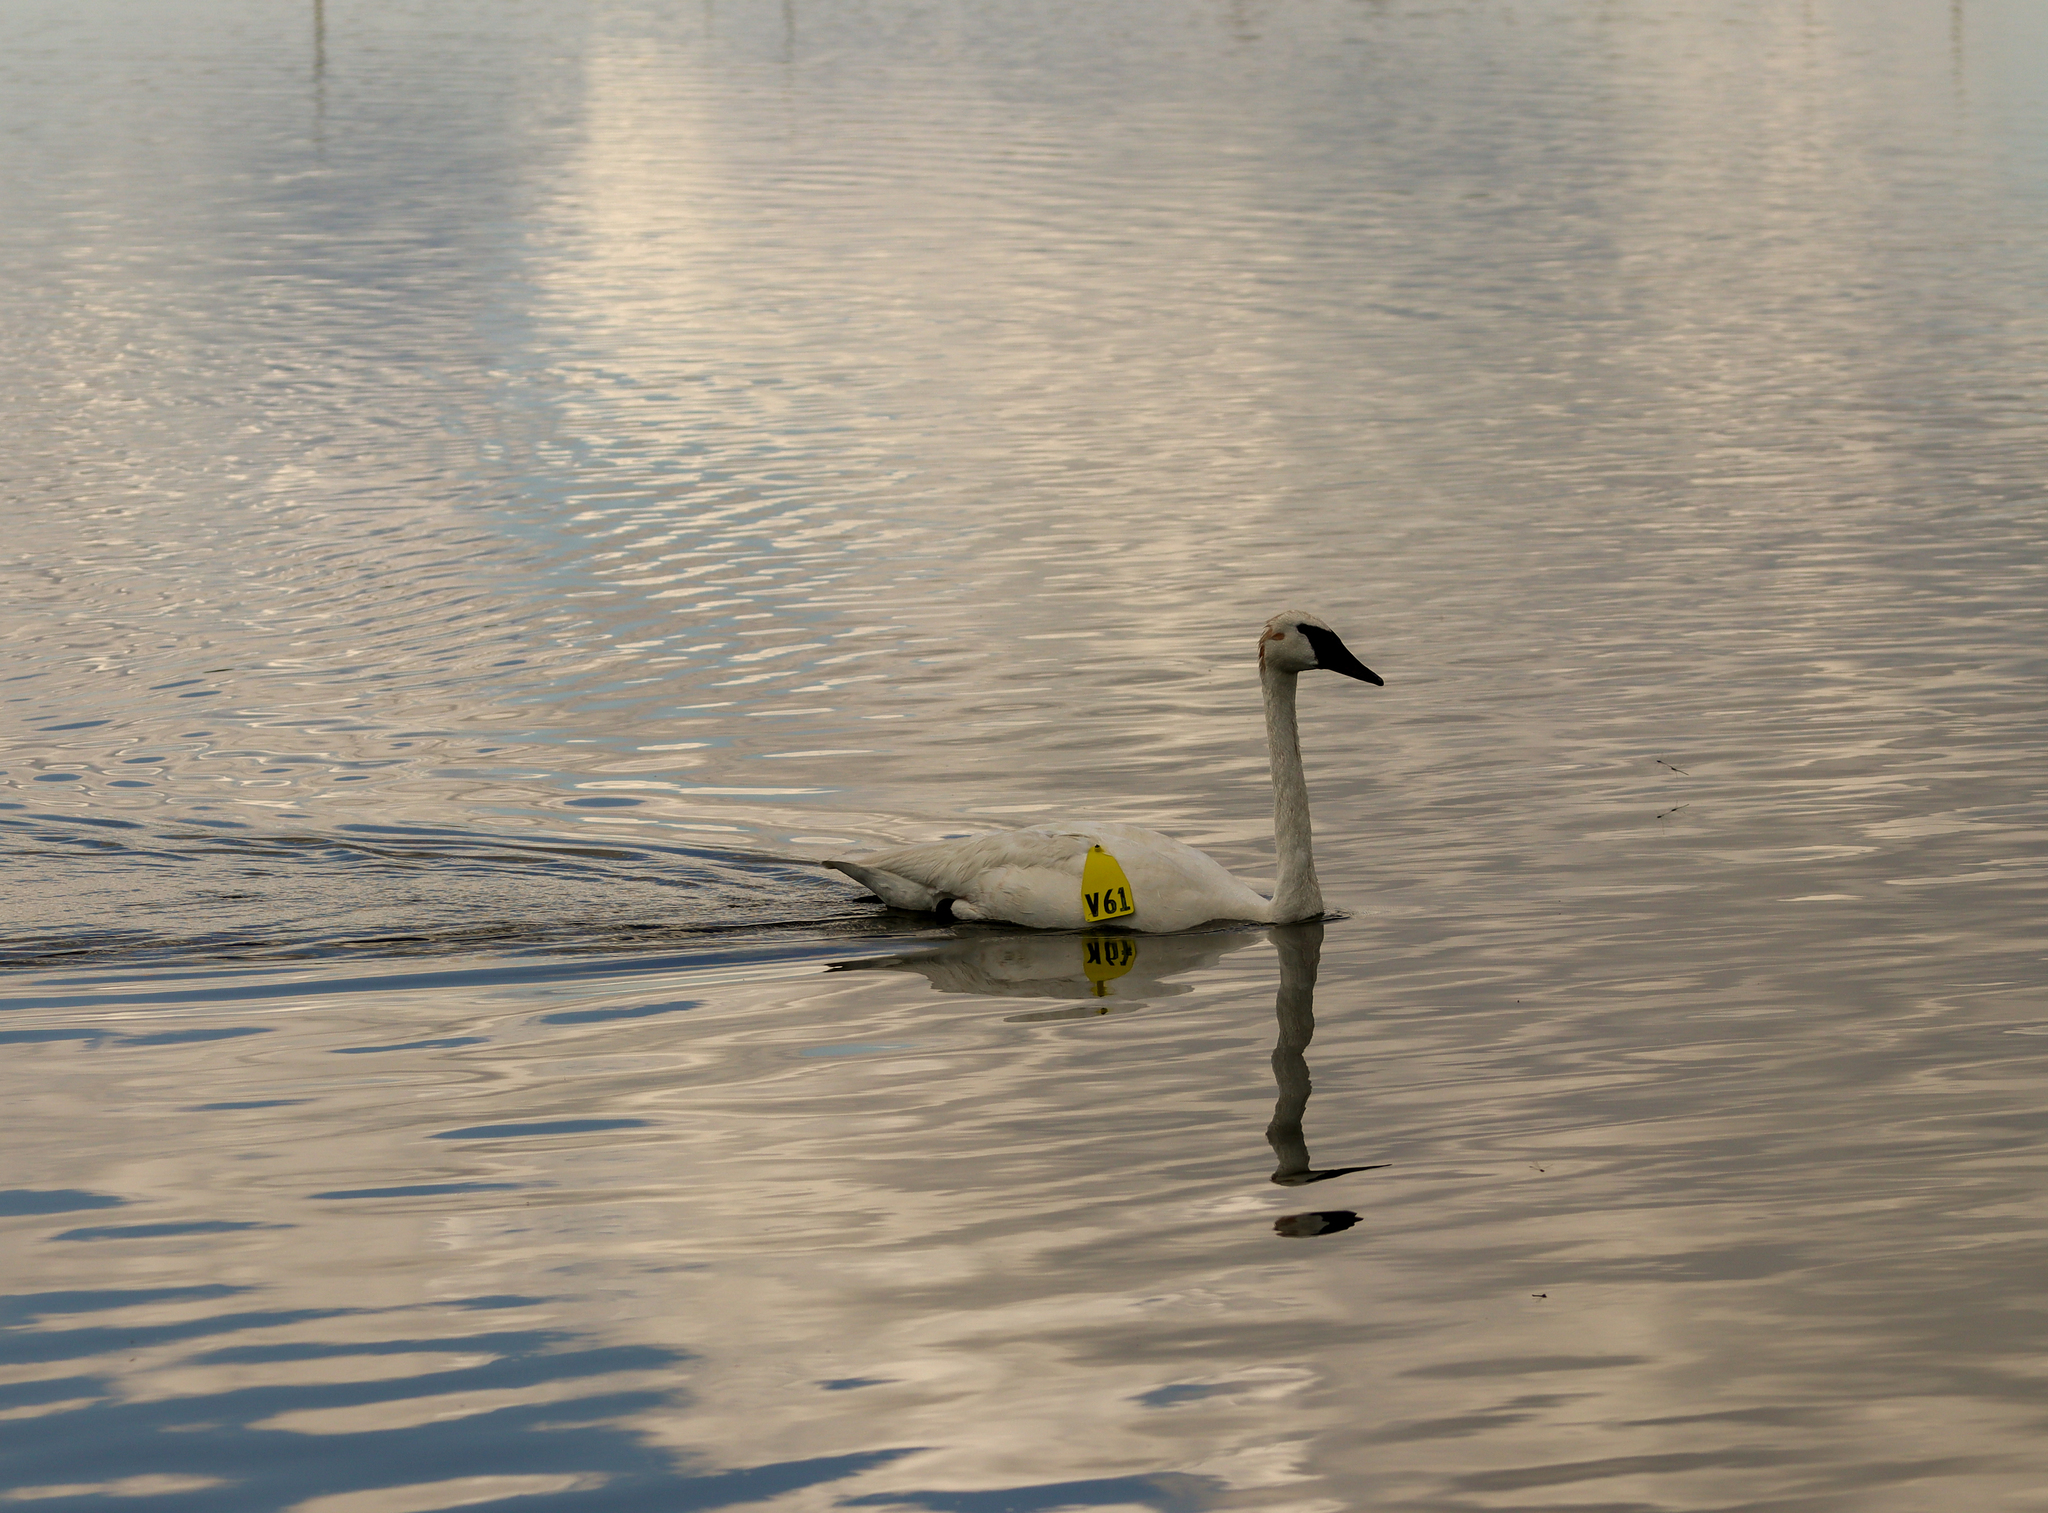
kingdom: Animalia
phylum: Chordata
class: Aves
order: Anseriformes
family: Anatidae
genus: Cygnus
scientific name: Cygnus buccinator
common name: Trumpeter swan
